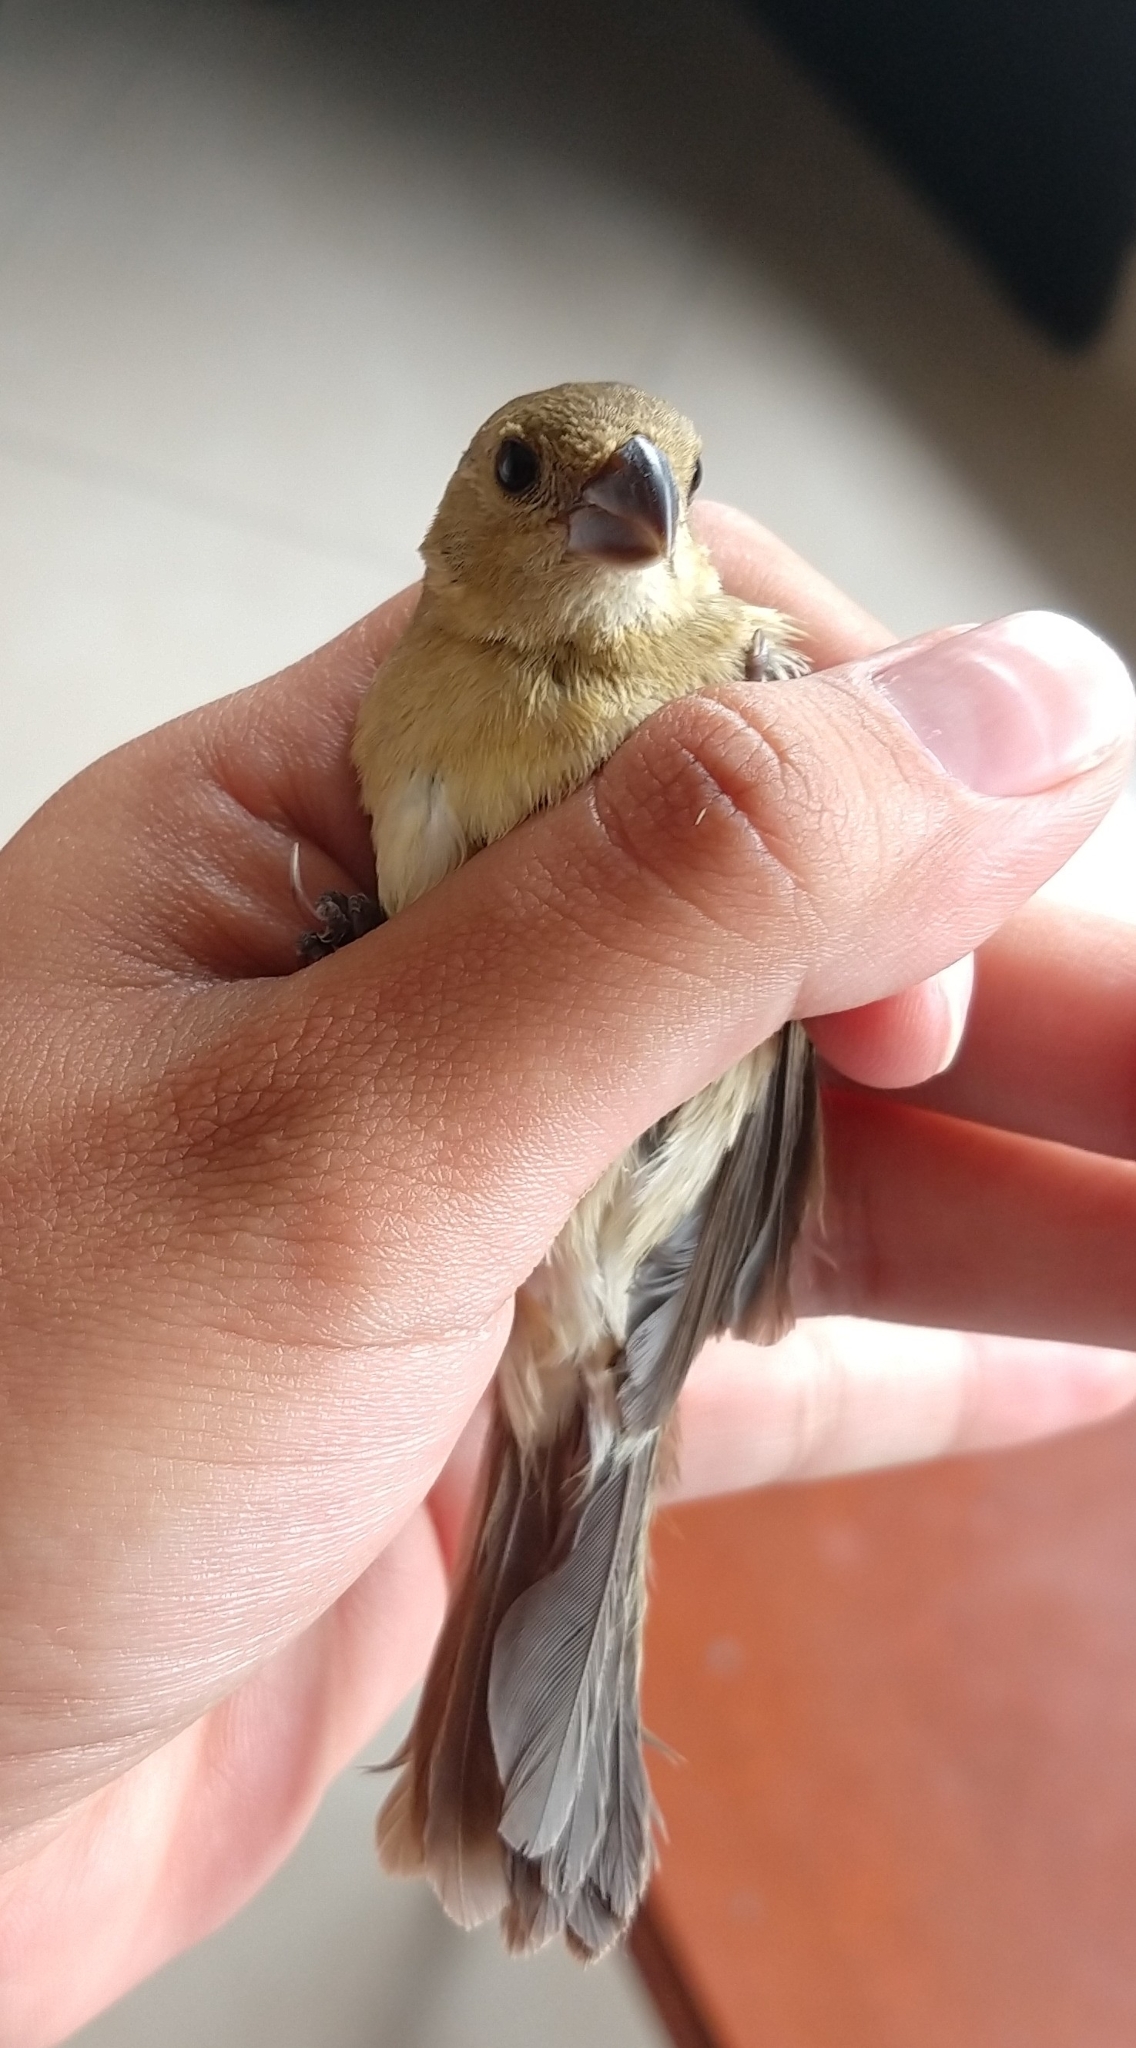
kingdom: Animalia
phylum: Chordata
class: Aves
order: Passeriformes
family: Thraupidae
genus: Sporophila
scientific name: Sporophila torqueola
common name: White-collared seedeater
